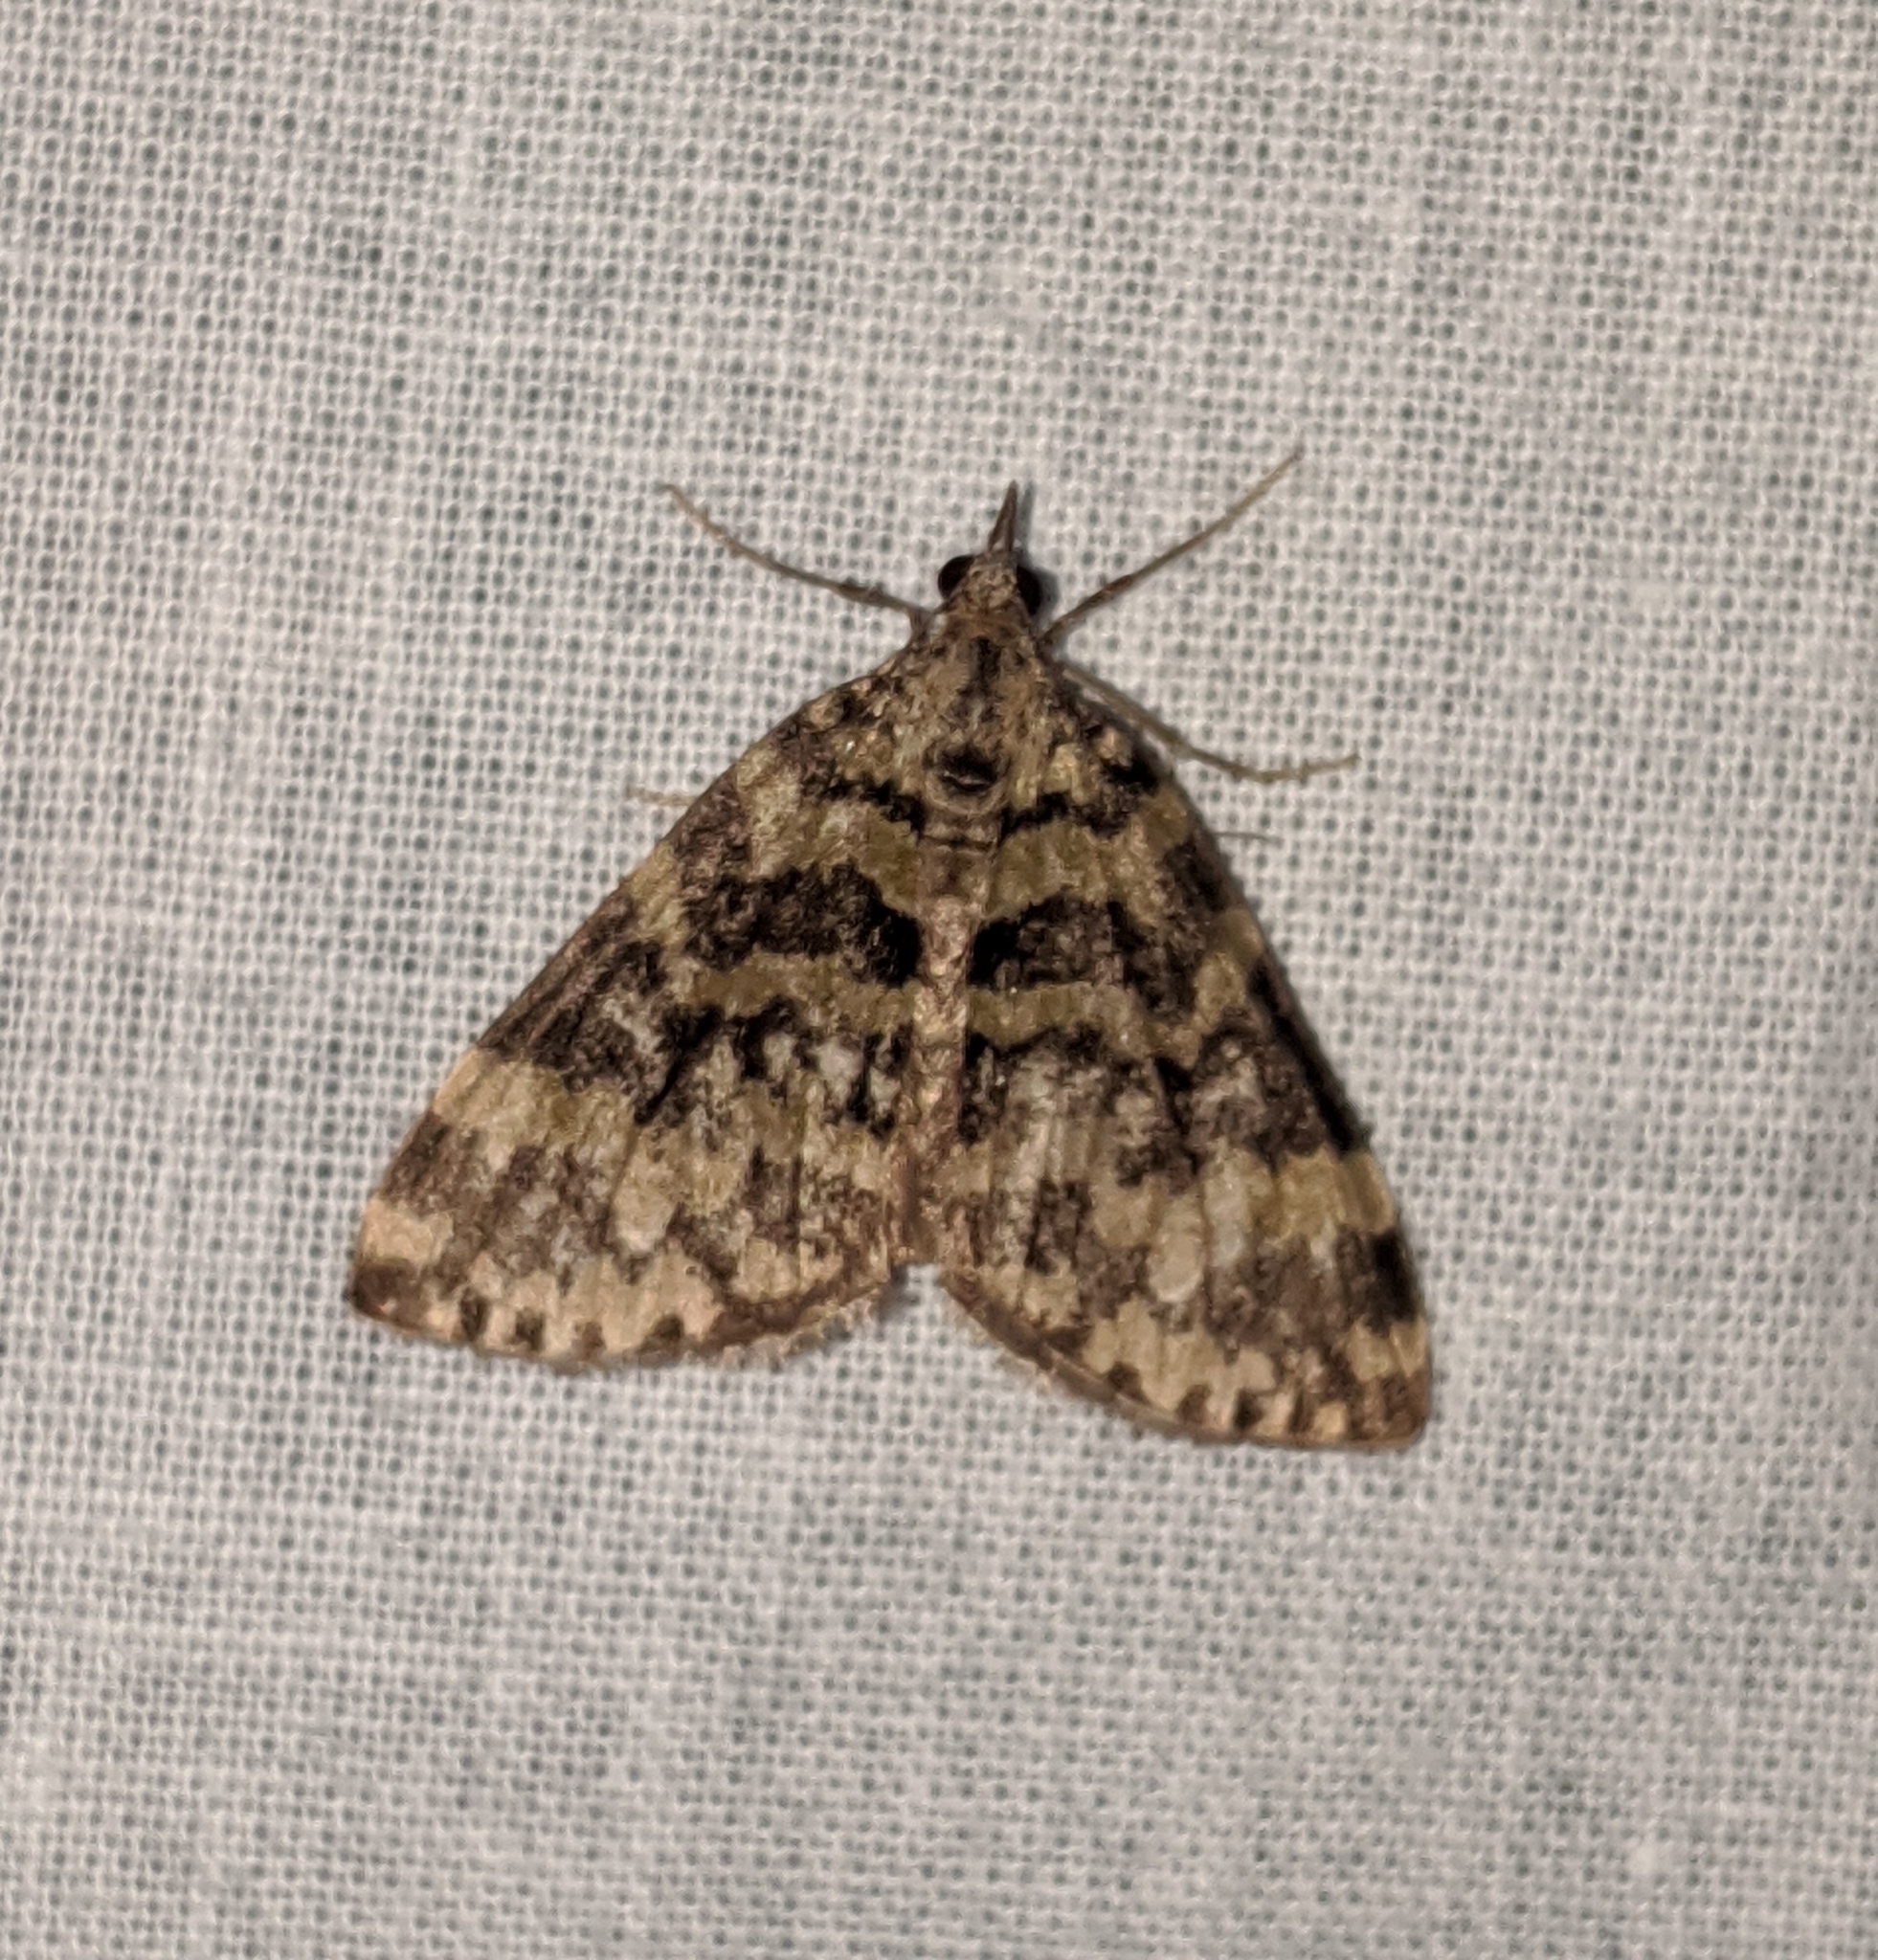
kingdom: Animalia
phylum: Arthropoda
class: Insecta
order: Lepidoptera
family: Geometridae
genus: Hydriomena
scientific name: Hydriomena speciosata
